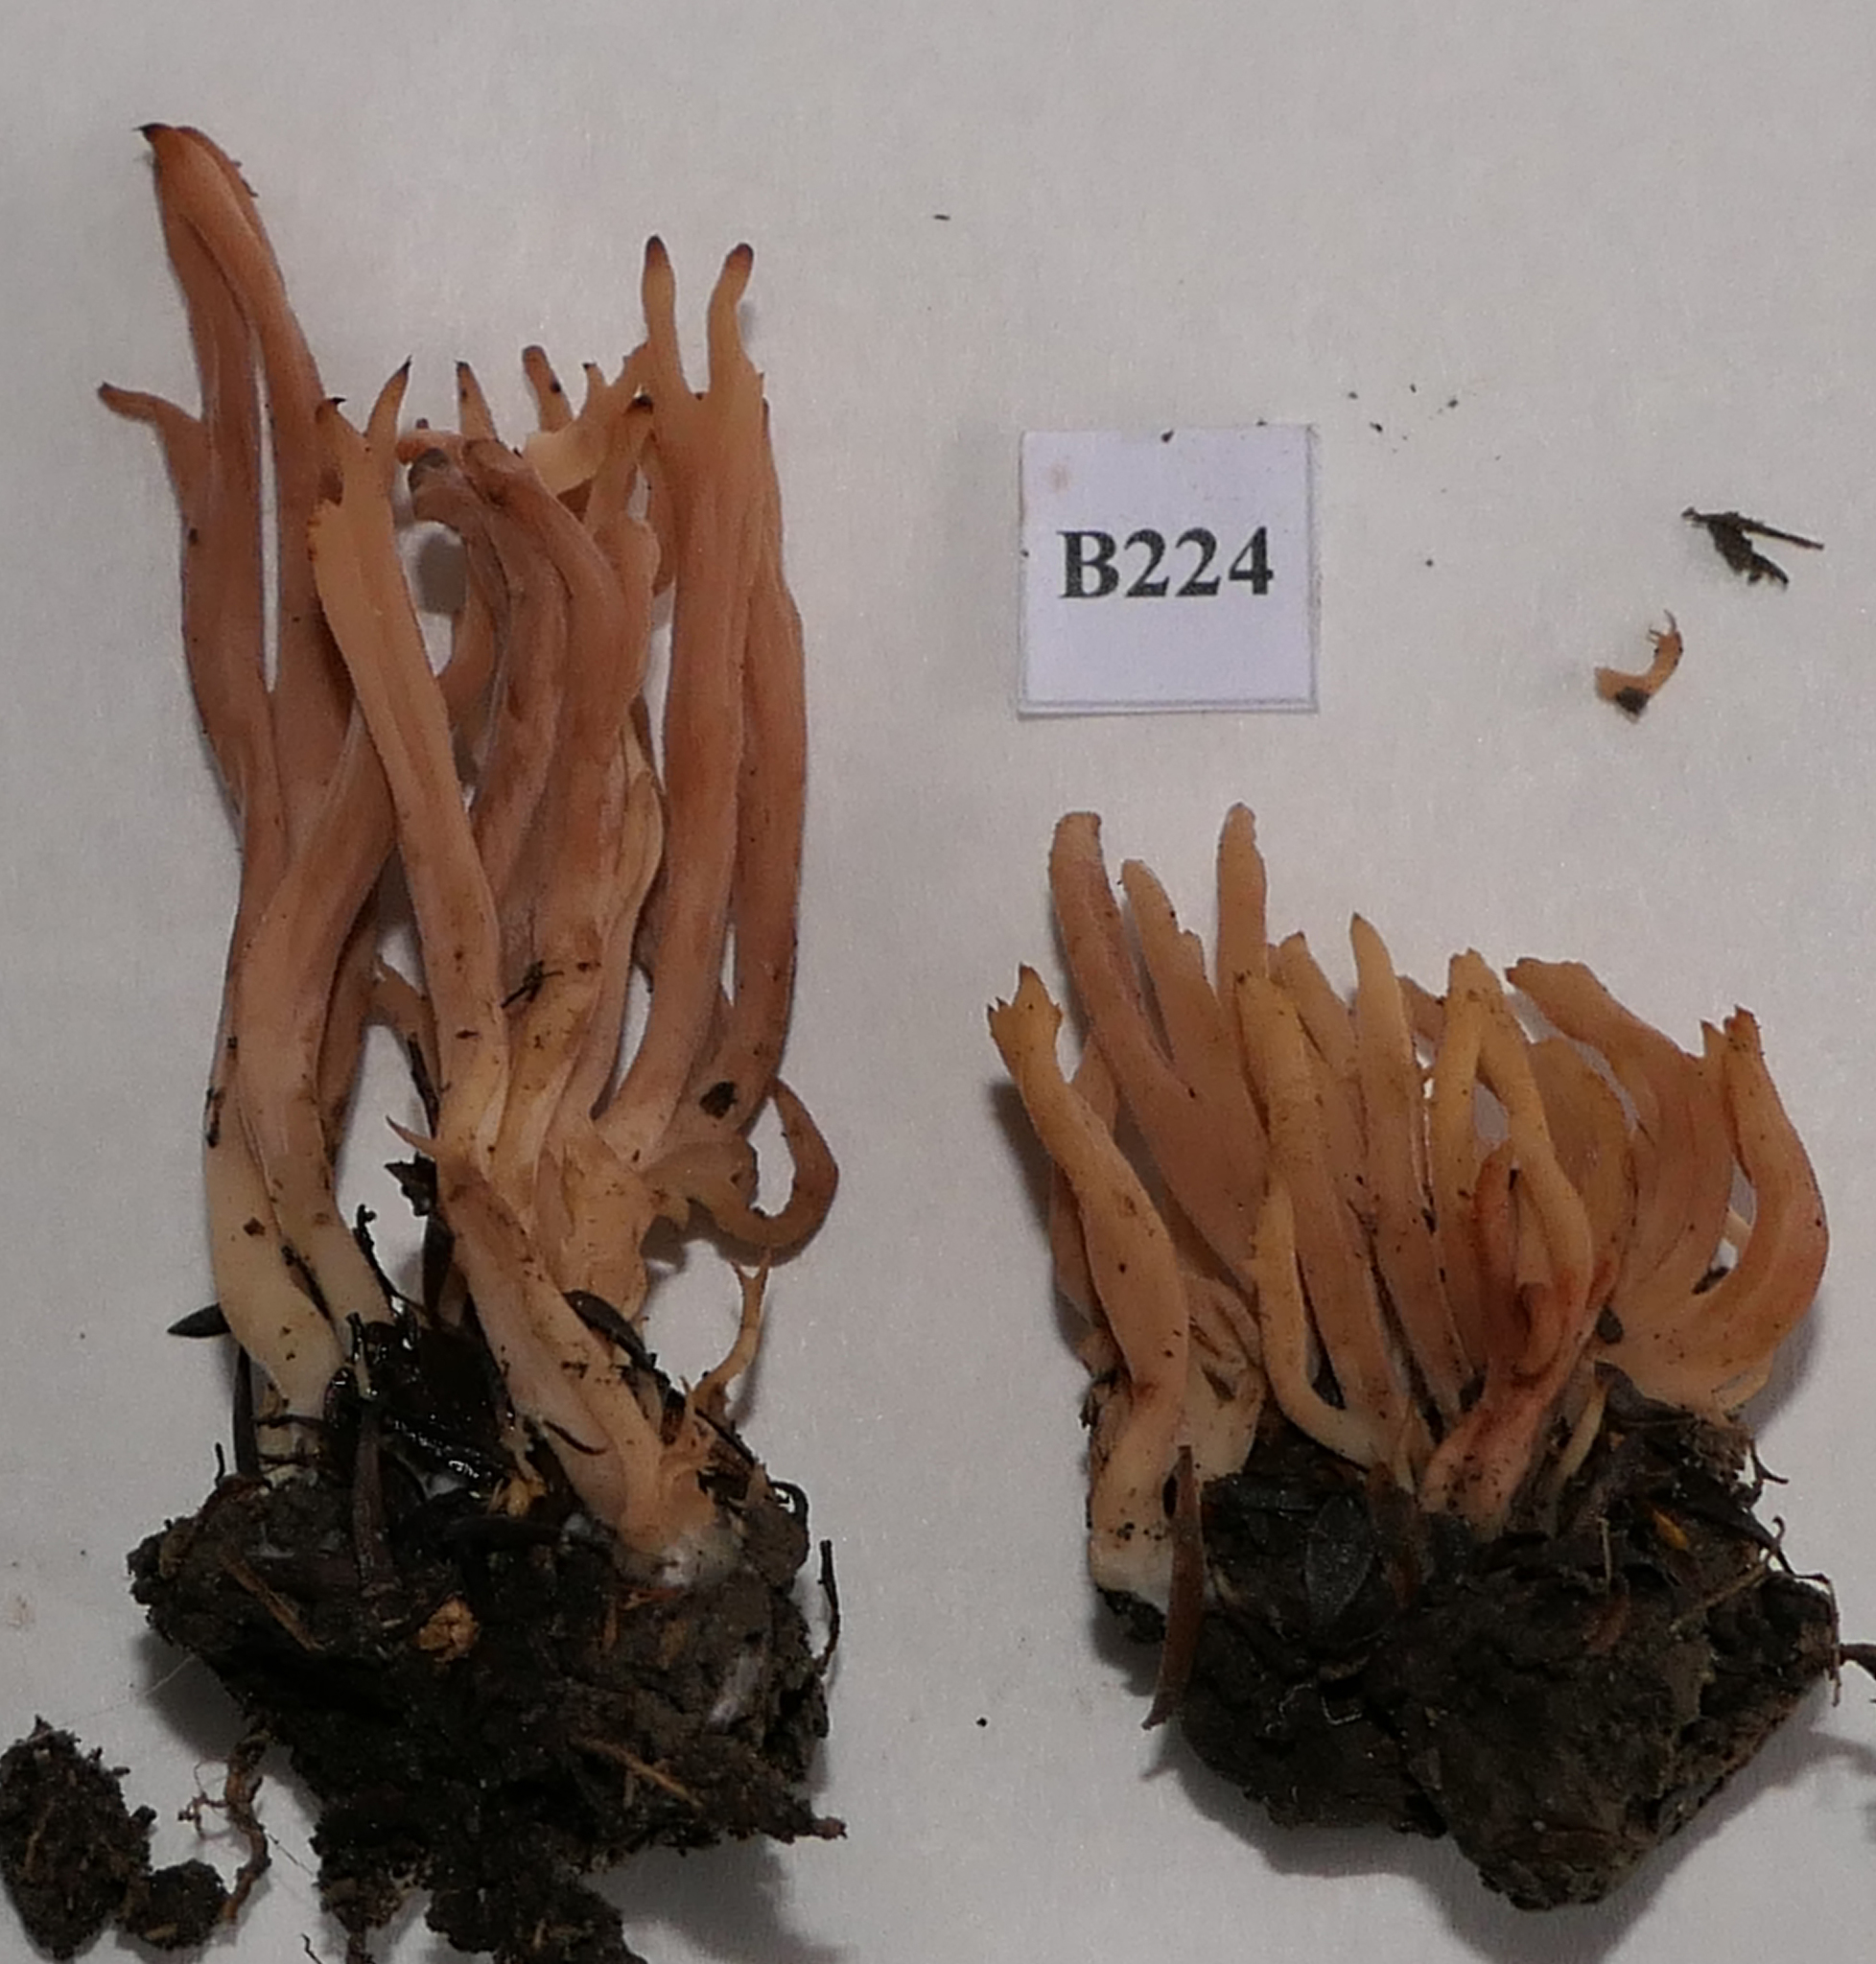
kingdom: Fungi
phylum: Basidiomycota
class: Agaricomycetes
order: Cantharellales
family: Hydnaceae
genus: Clavulina
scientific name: Clavulina vinaceocervina
